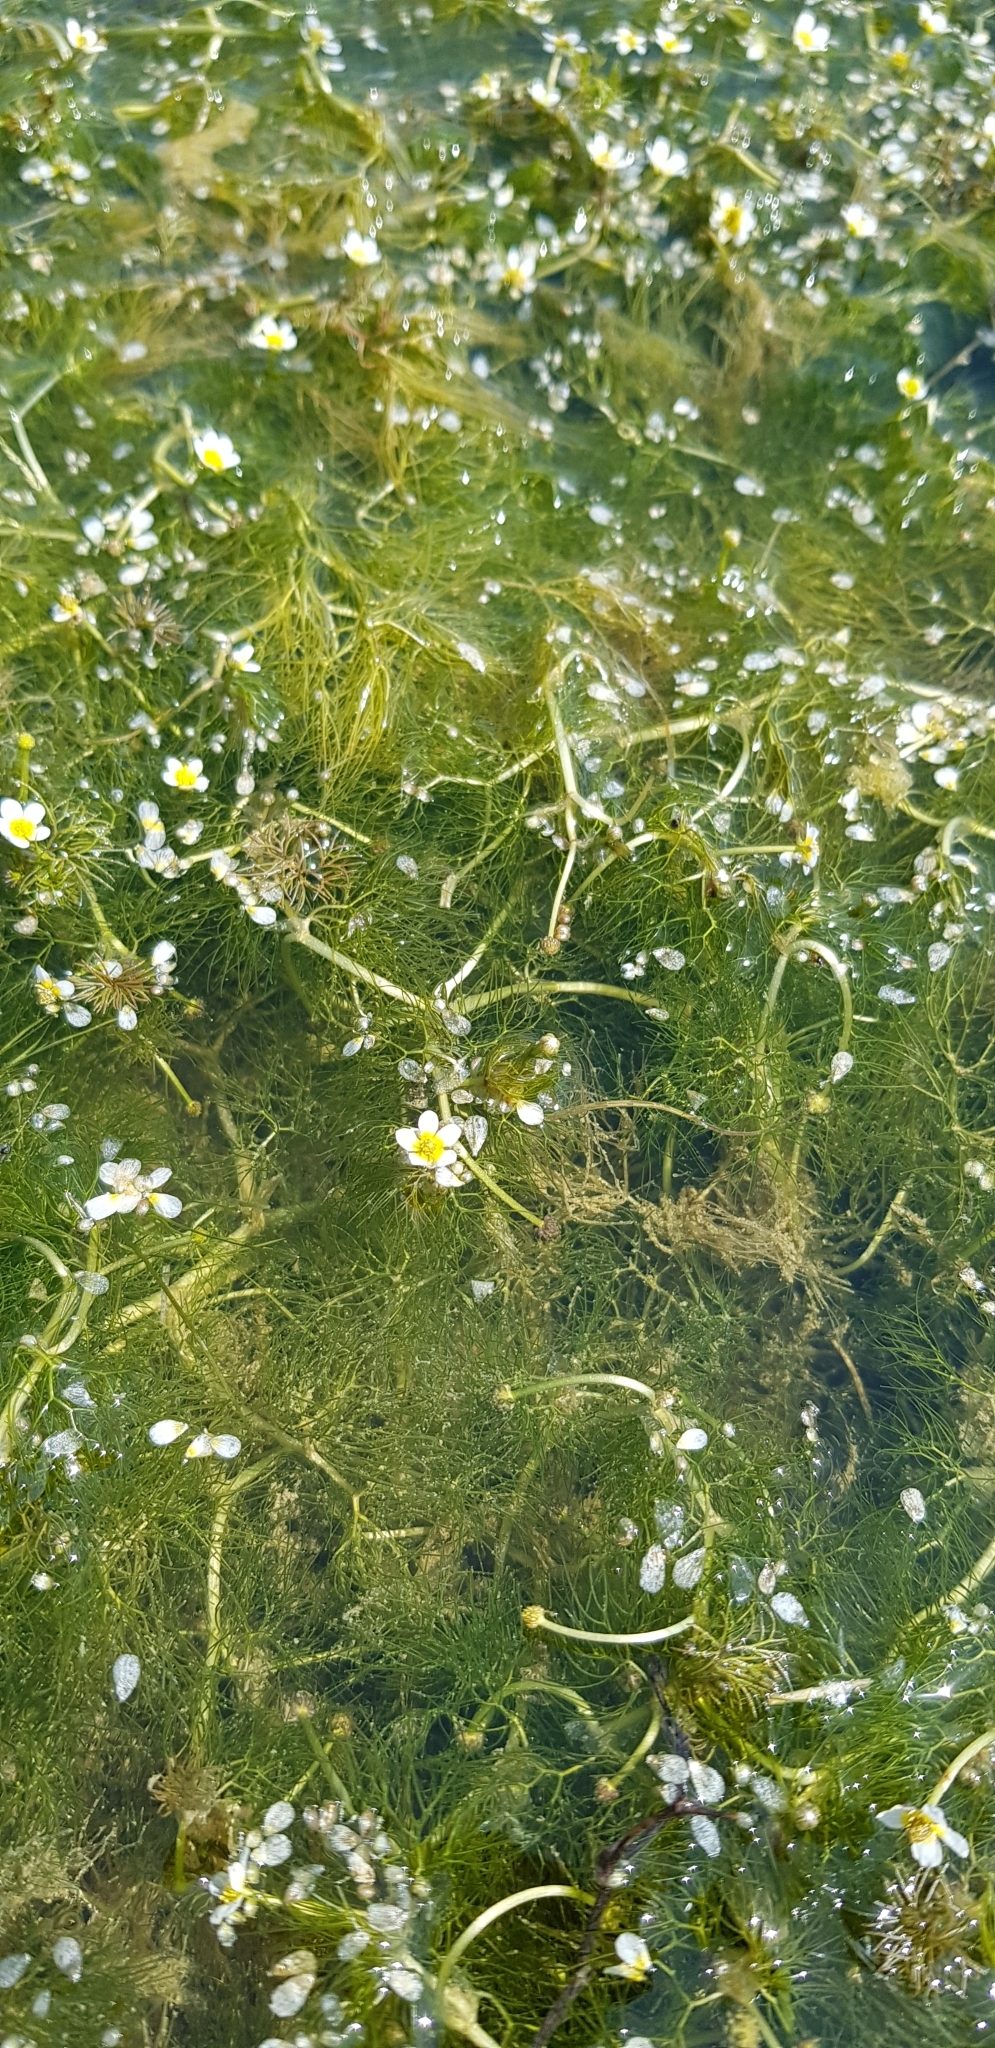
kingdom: Plantae
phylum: Tracheophyta
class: Magnoliopsida
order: Ranunculales
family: Ranunculaceae
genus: Ranunculus
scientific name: Ranunculus rionii
